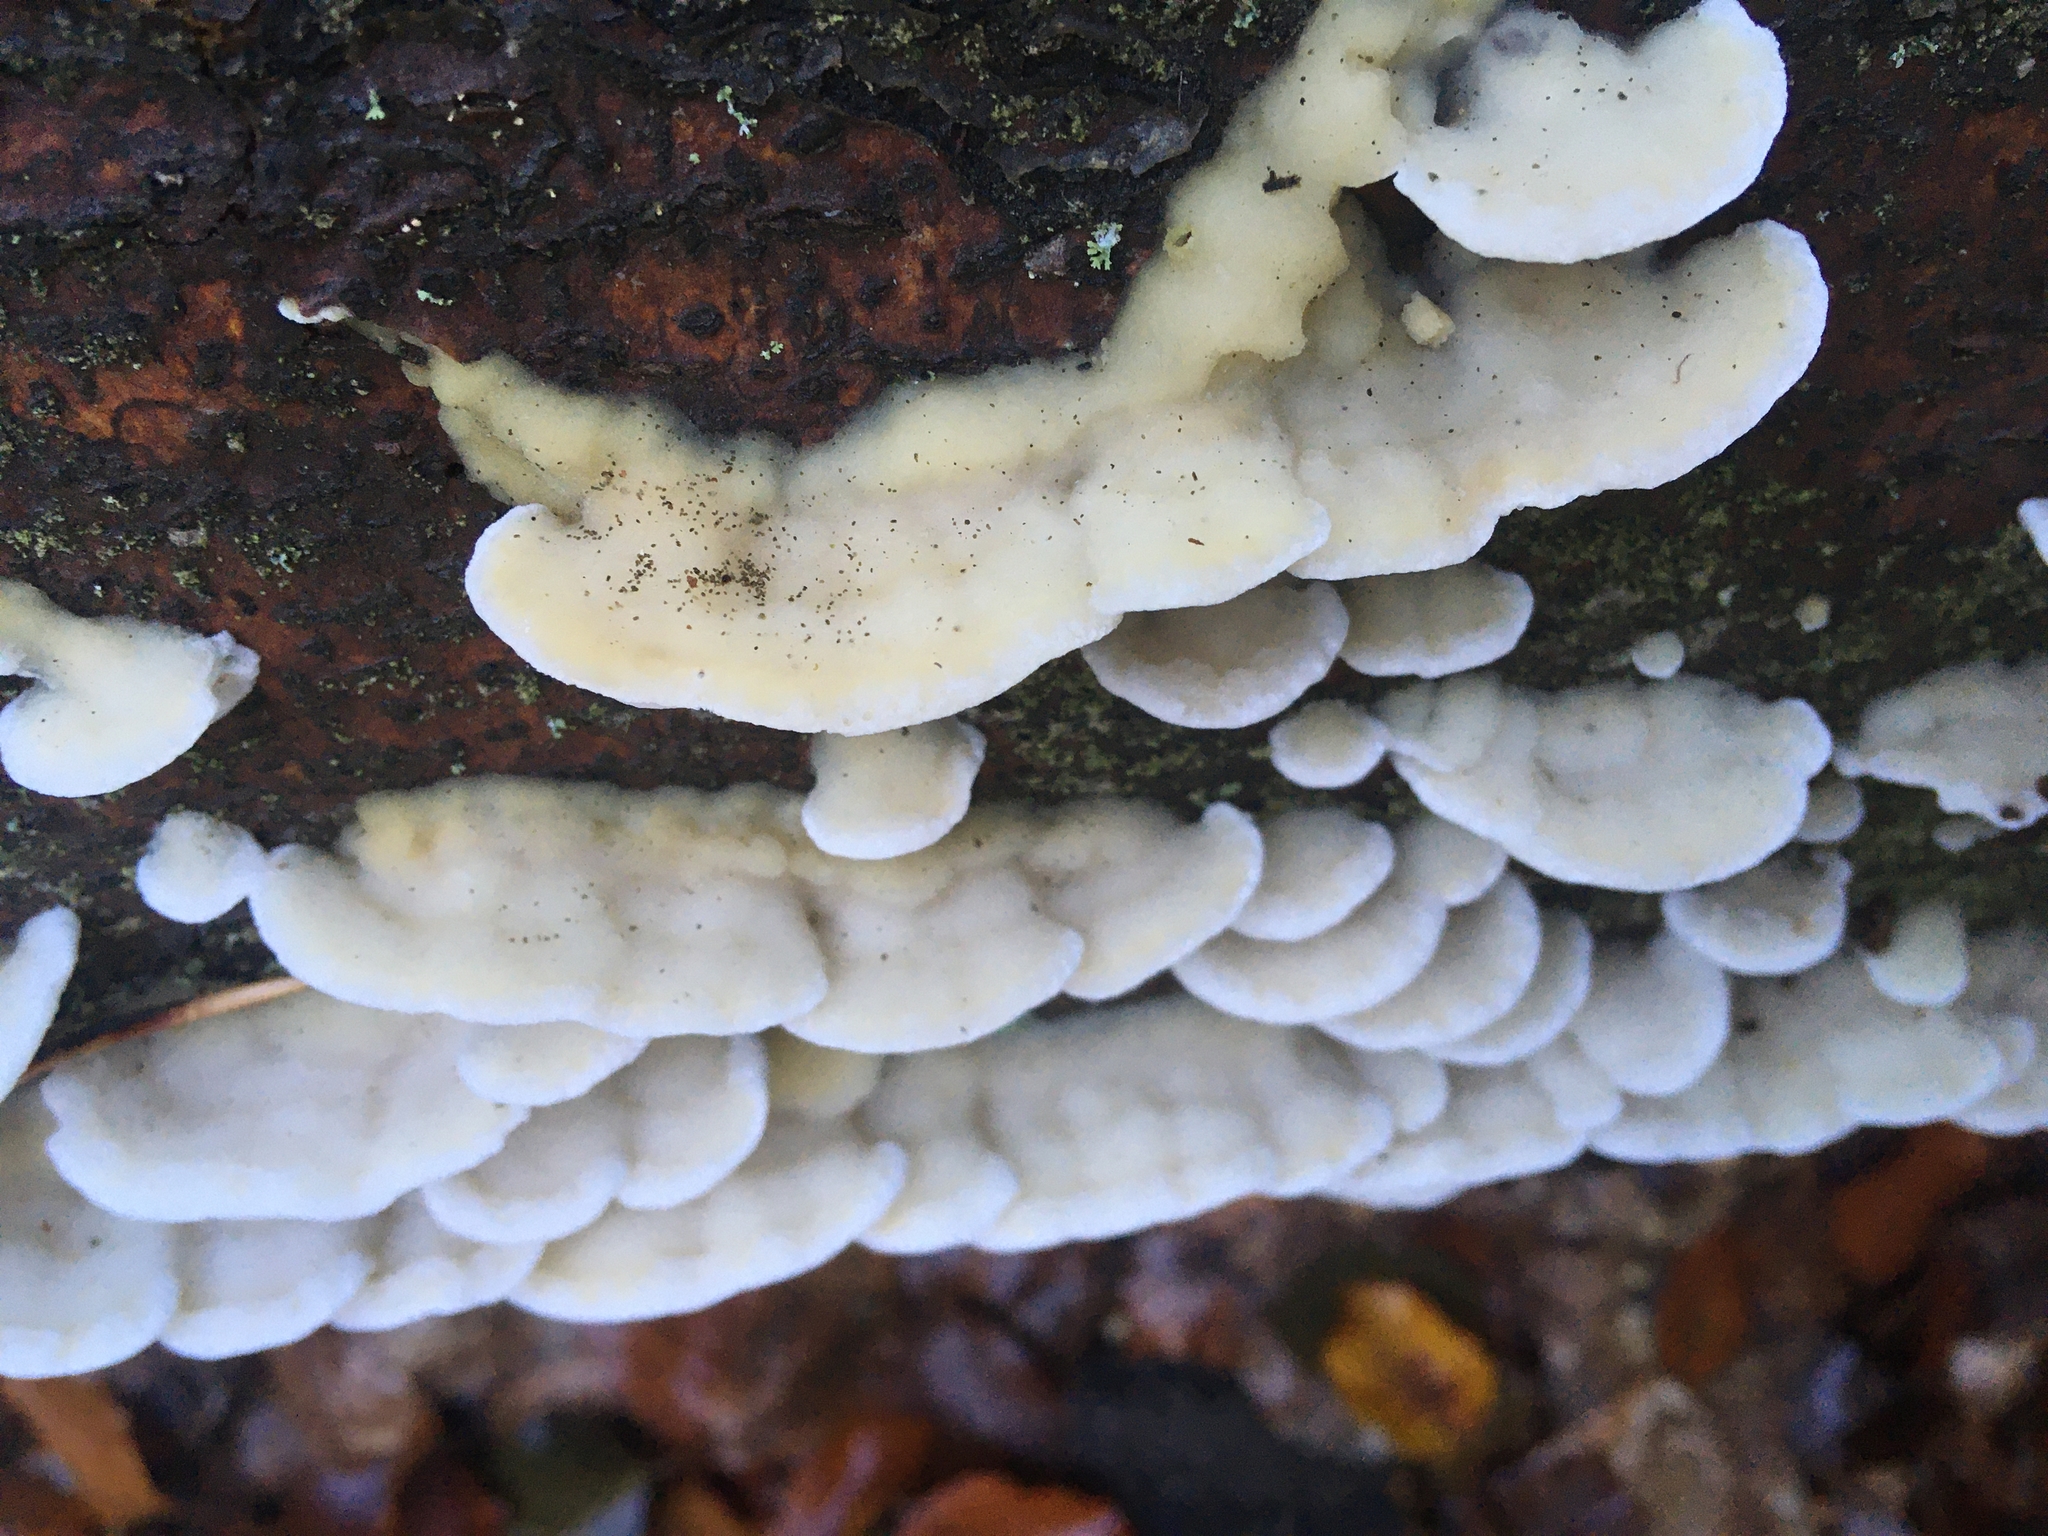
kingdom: Fungi
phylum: Basidiomycota
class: Agaricomycetes
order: Polyporales
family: Irpicaceae
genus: Vitreoporus
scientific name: Vitreoporus dichrous
